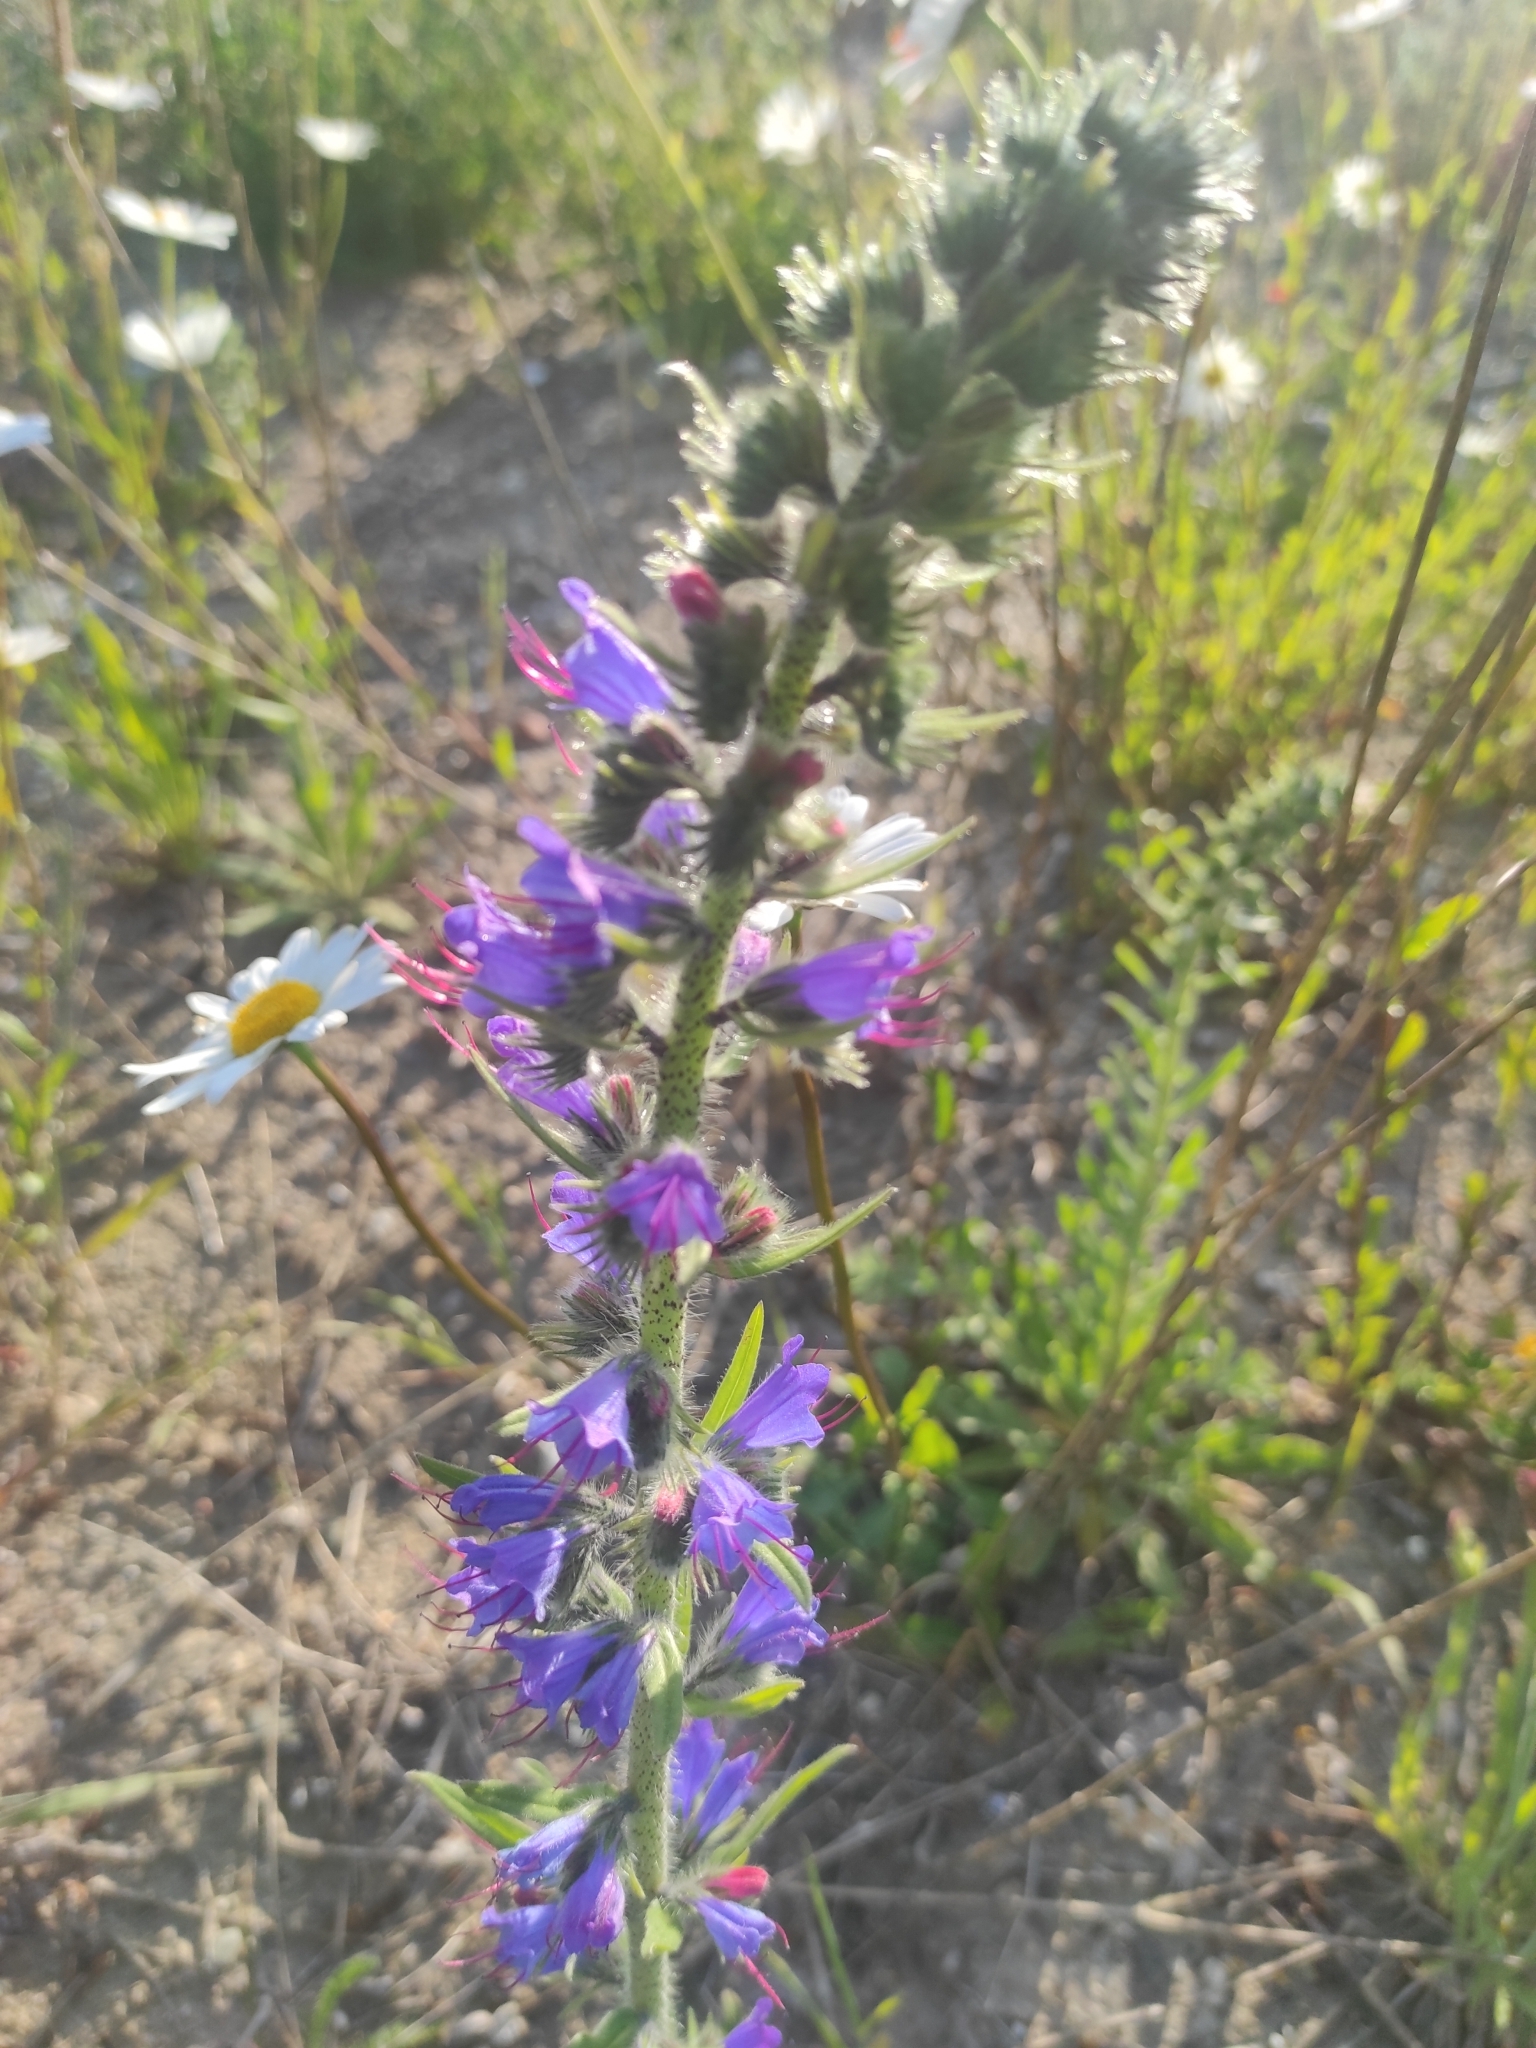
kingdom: Plantae
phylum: Tracheophyta
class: Magnoliopsida
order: Boraginales
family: Boraginaceae
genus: Echium
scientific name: Echium vulgare
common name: Common viper's bugloss
